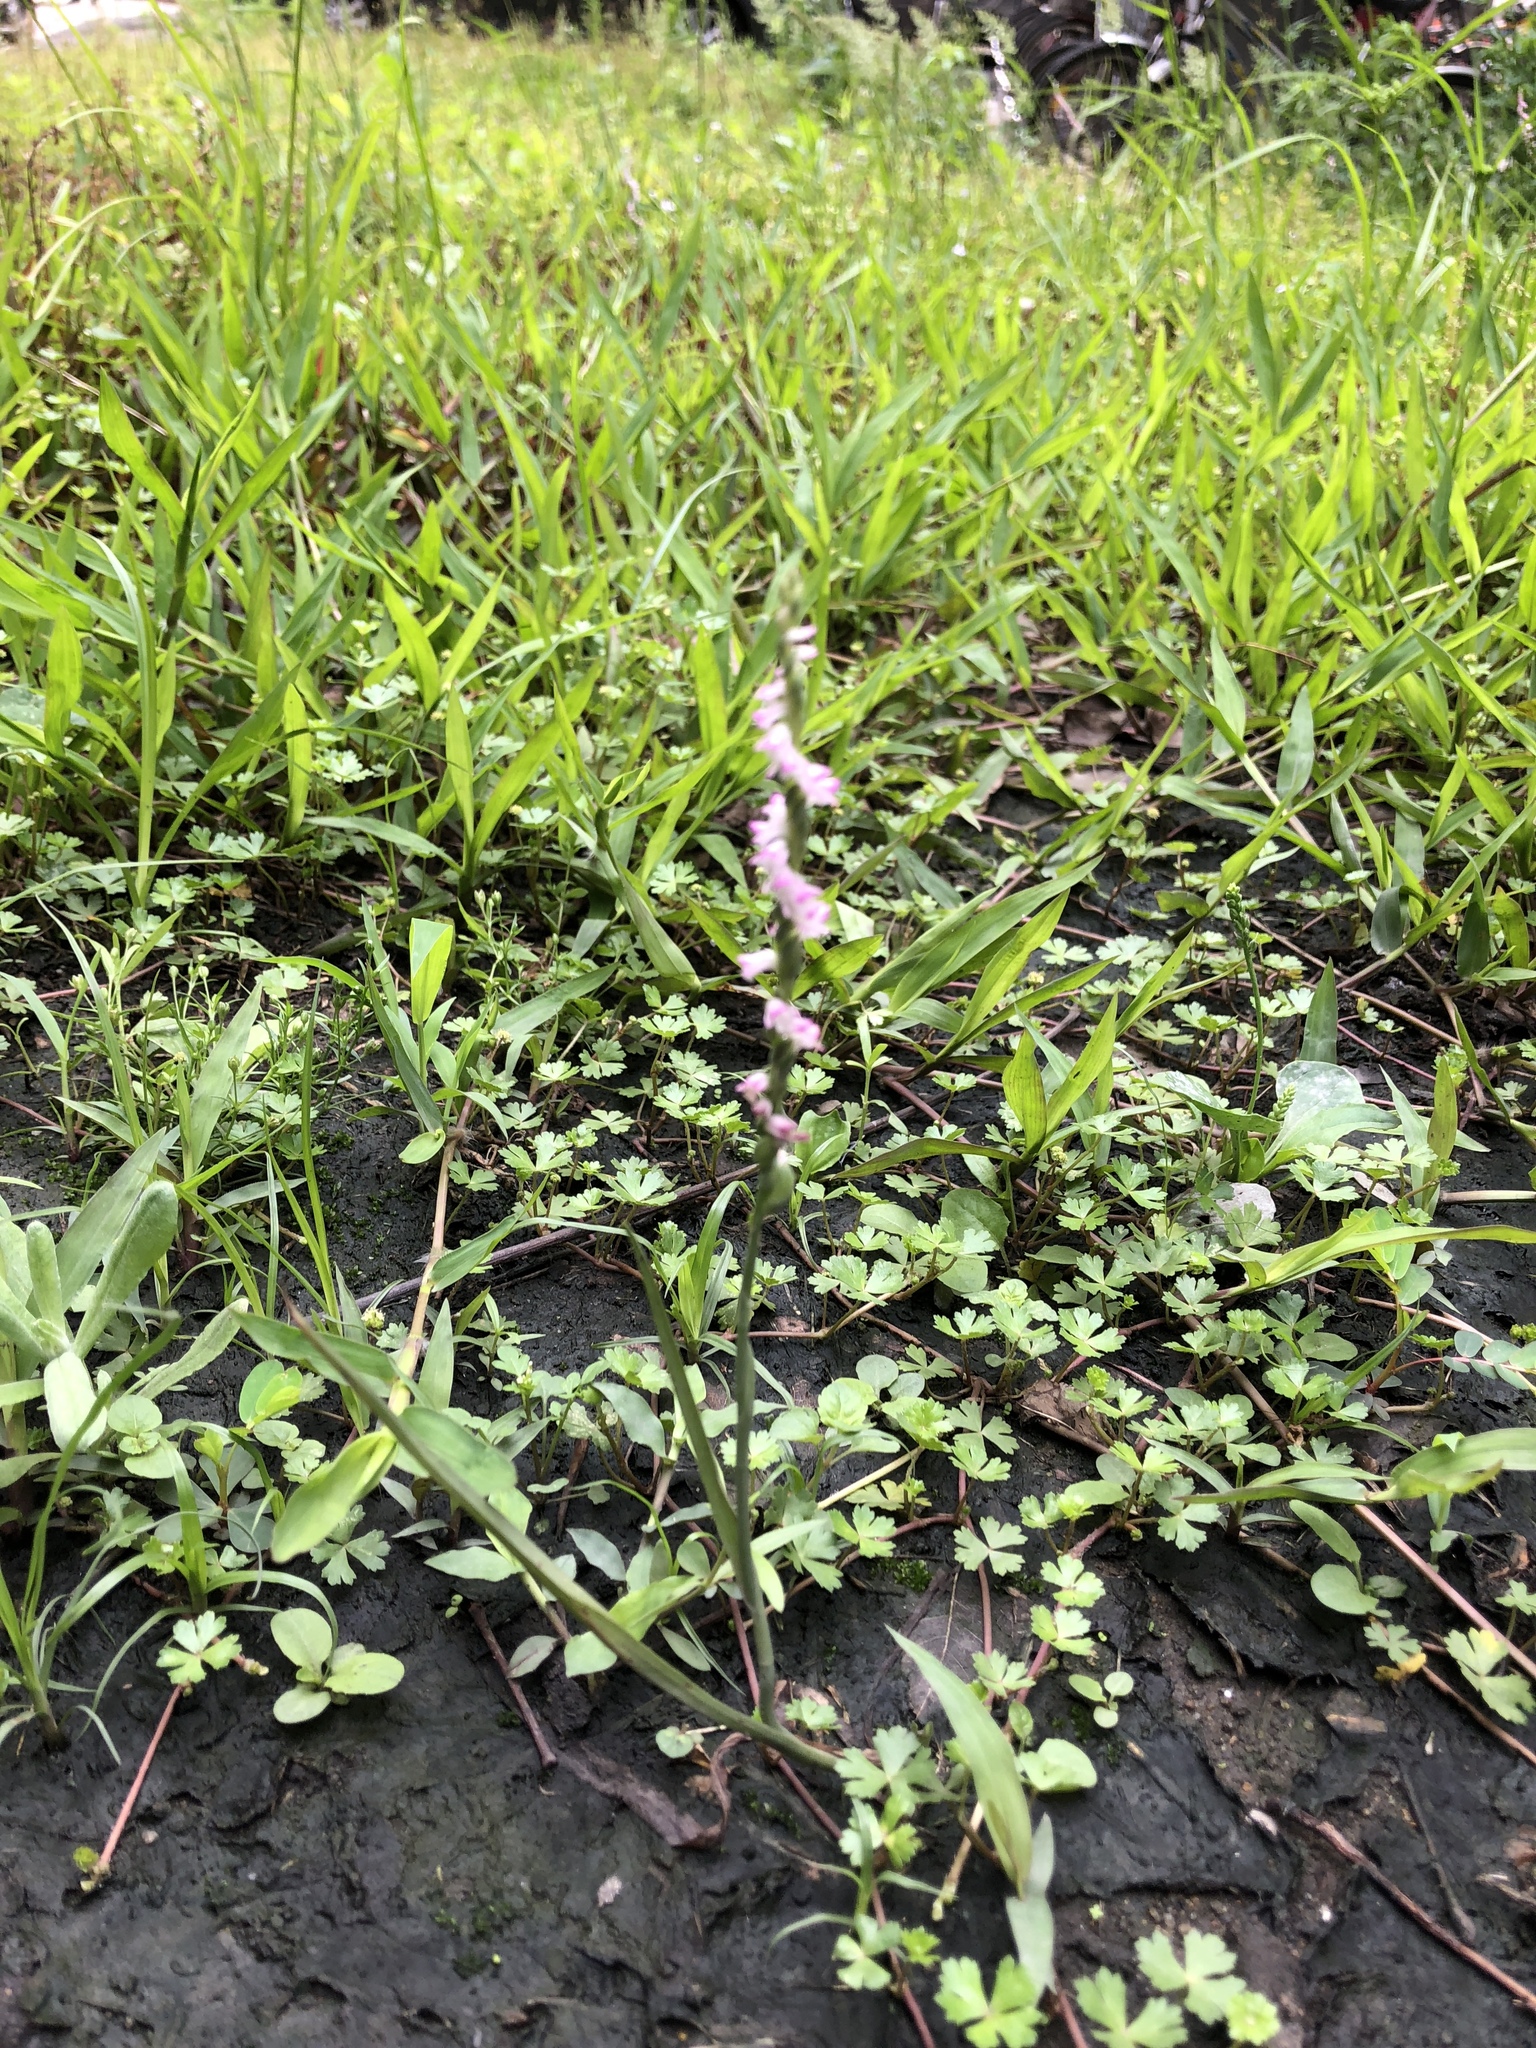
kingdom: Plantae
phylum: Tracheophyta
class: Liliopsida
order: Asparagales
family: Orchidaceae
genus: Spiranthes
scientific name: Spiranthes sinensis
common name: Chinese spiranthes
